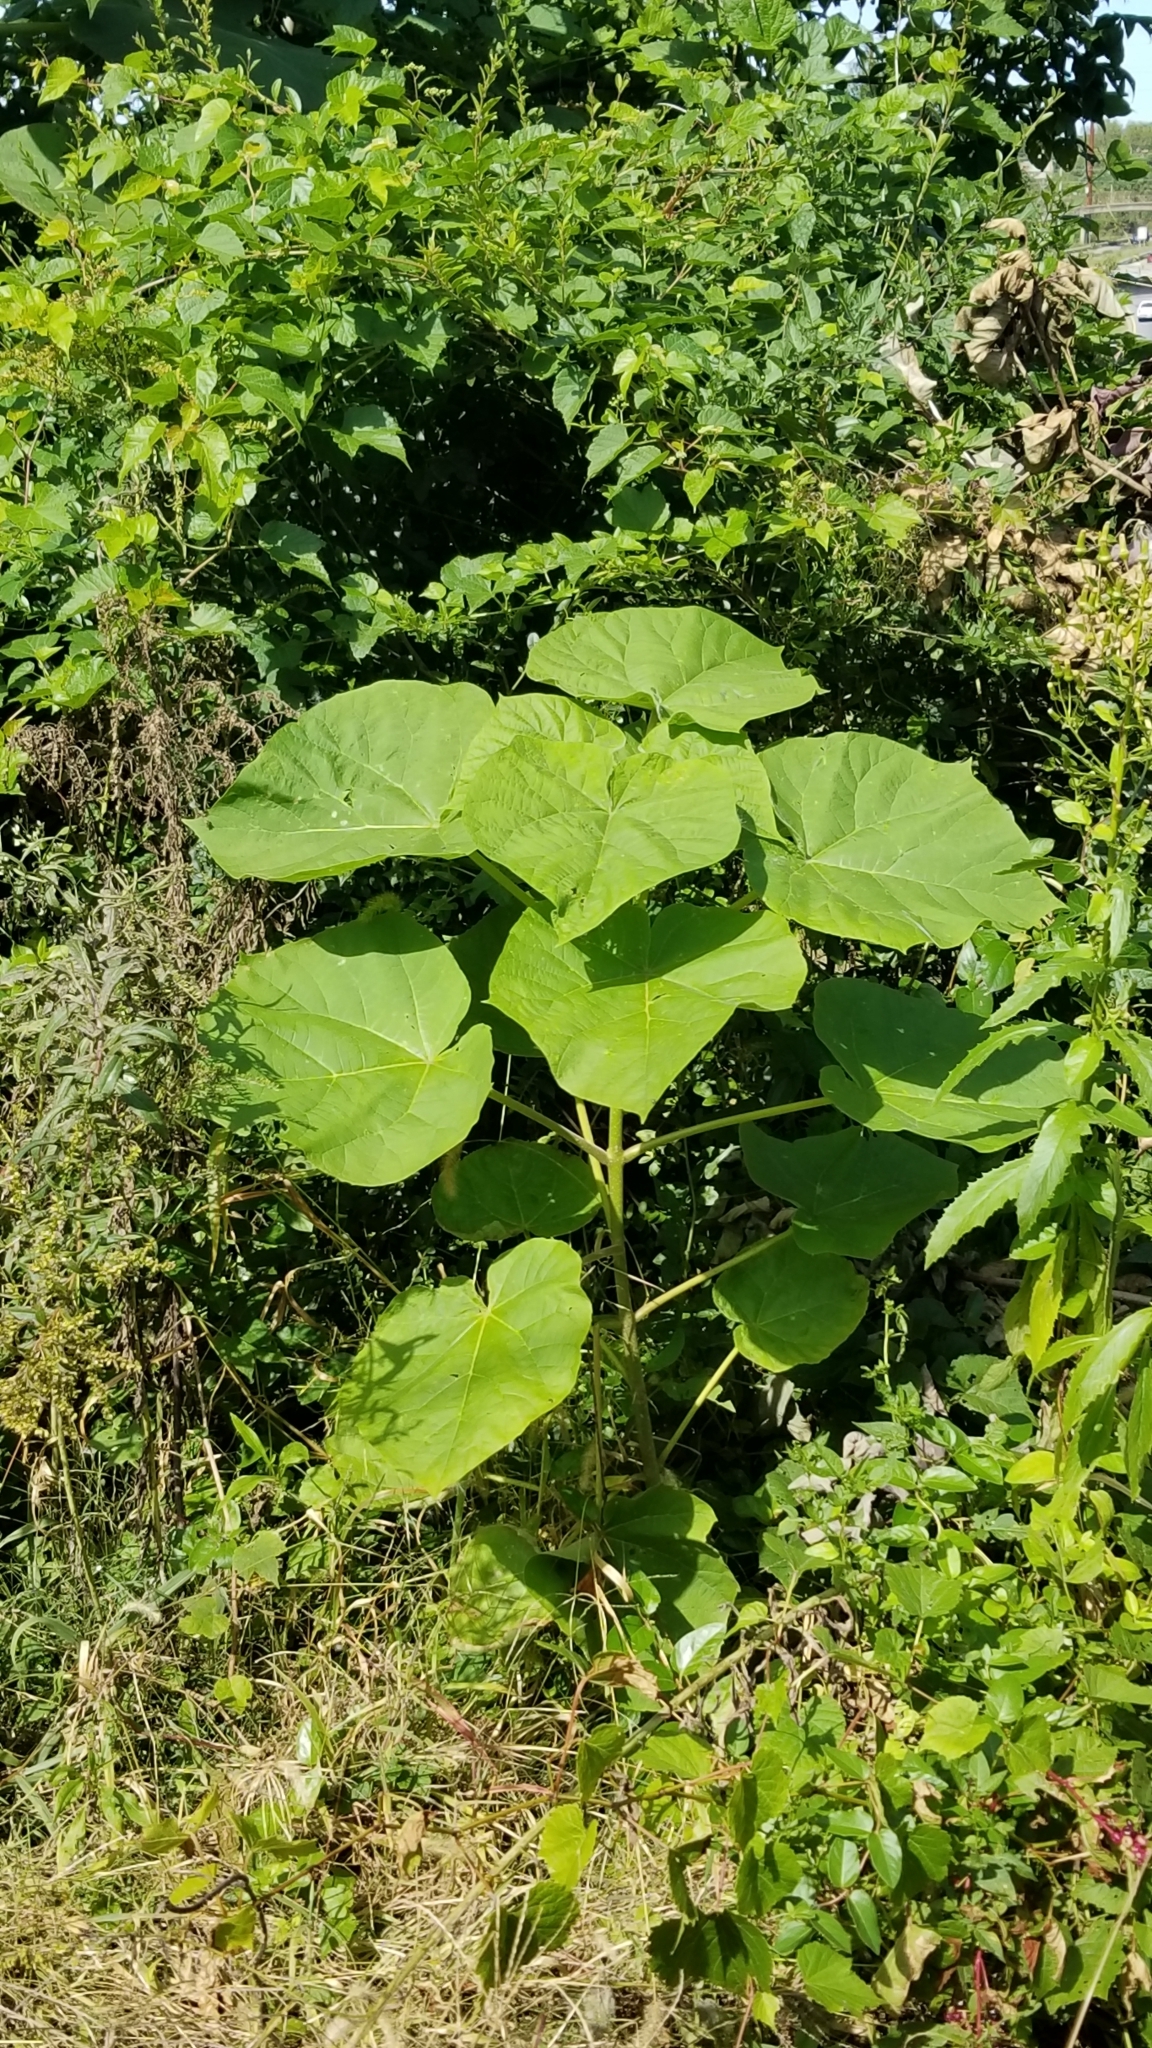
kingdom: Plantae
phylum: Tracheophyta
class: Magnoliopsida
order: Lamiales
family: Paulowniaceae
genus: Paulownia
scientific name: Paulownia tomentosa
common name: Foxglove-tree
